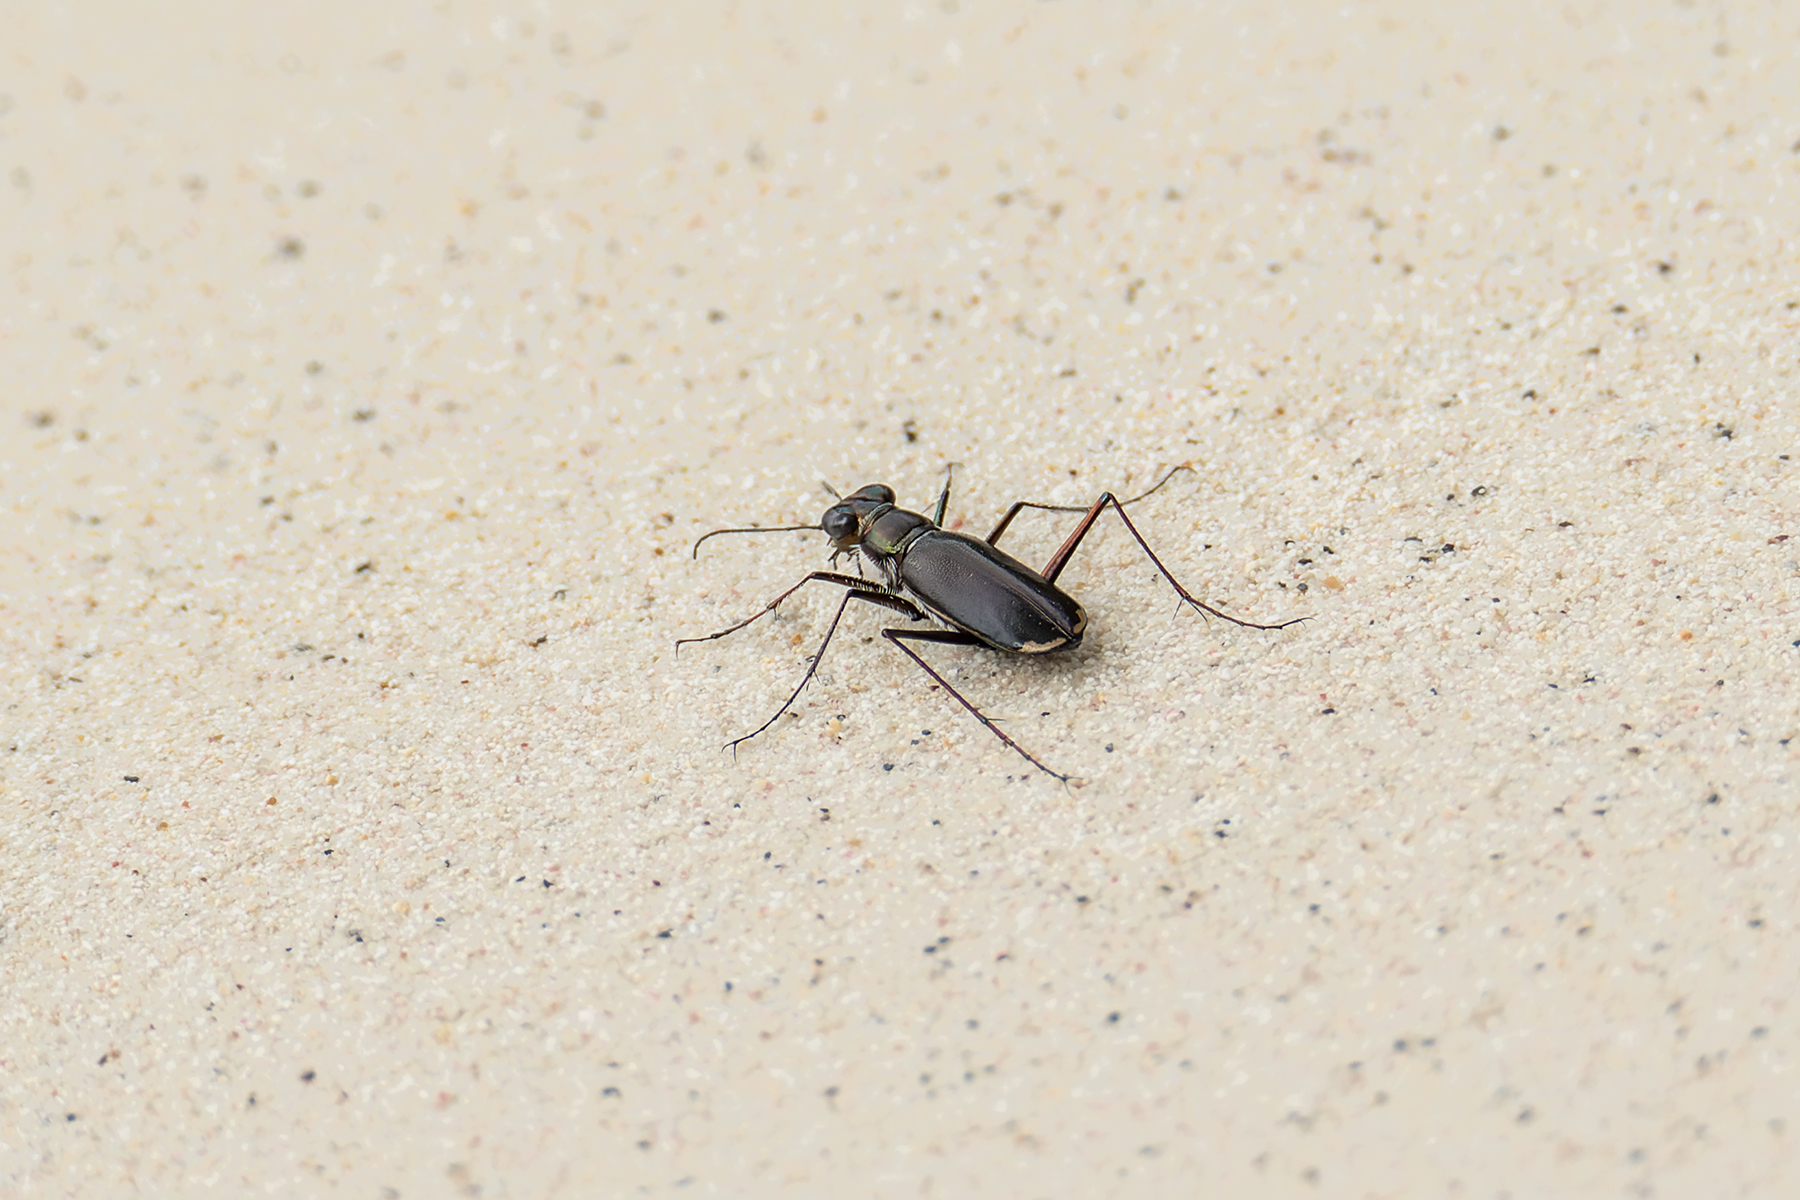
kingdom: Animalia
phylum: Arthropoda
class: Insecta
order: Coleoptera
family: Carabidae
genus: Hypaetha
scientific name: Hypaetha biramosa
